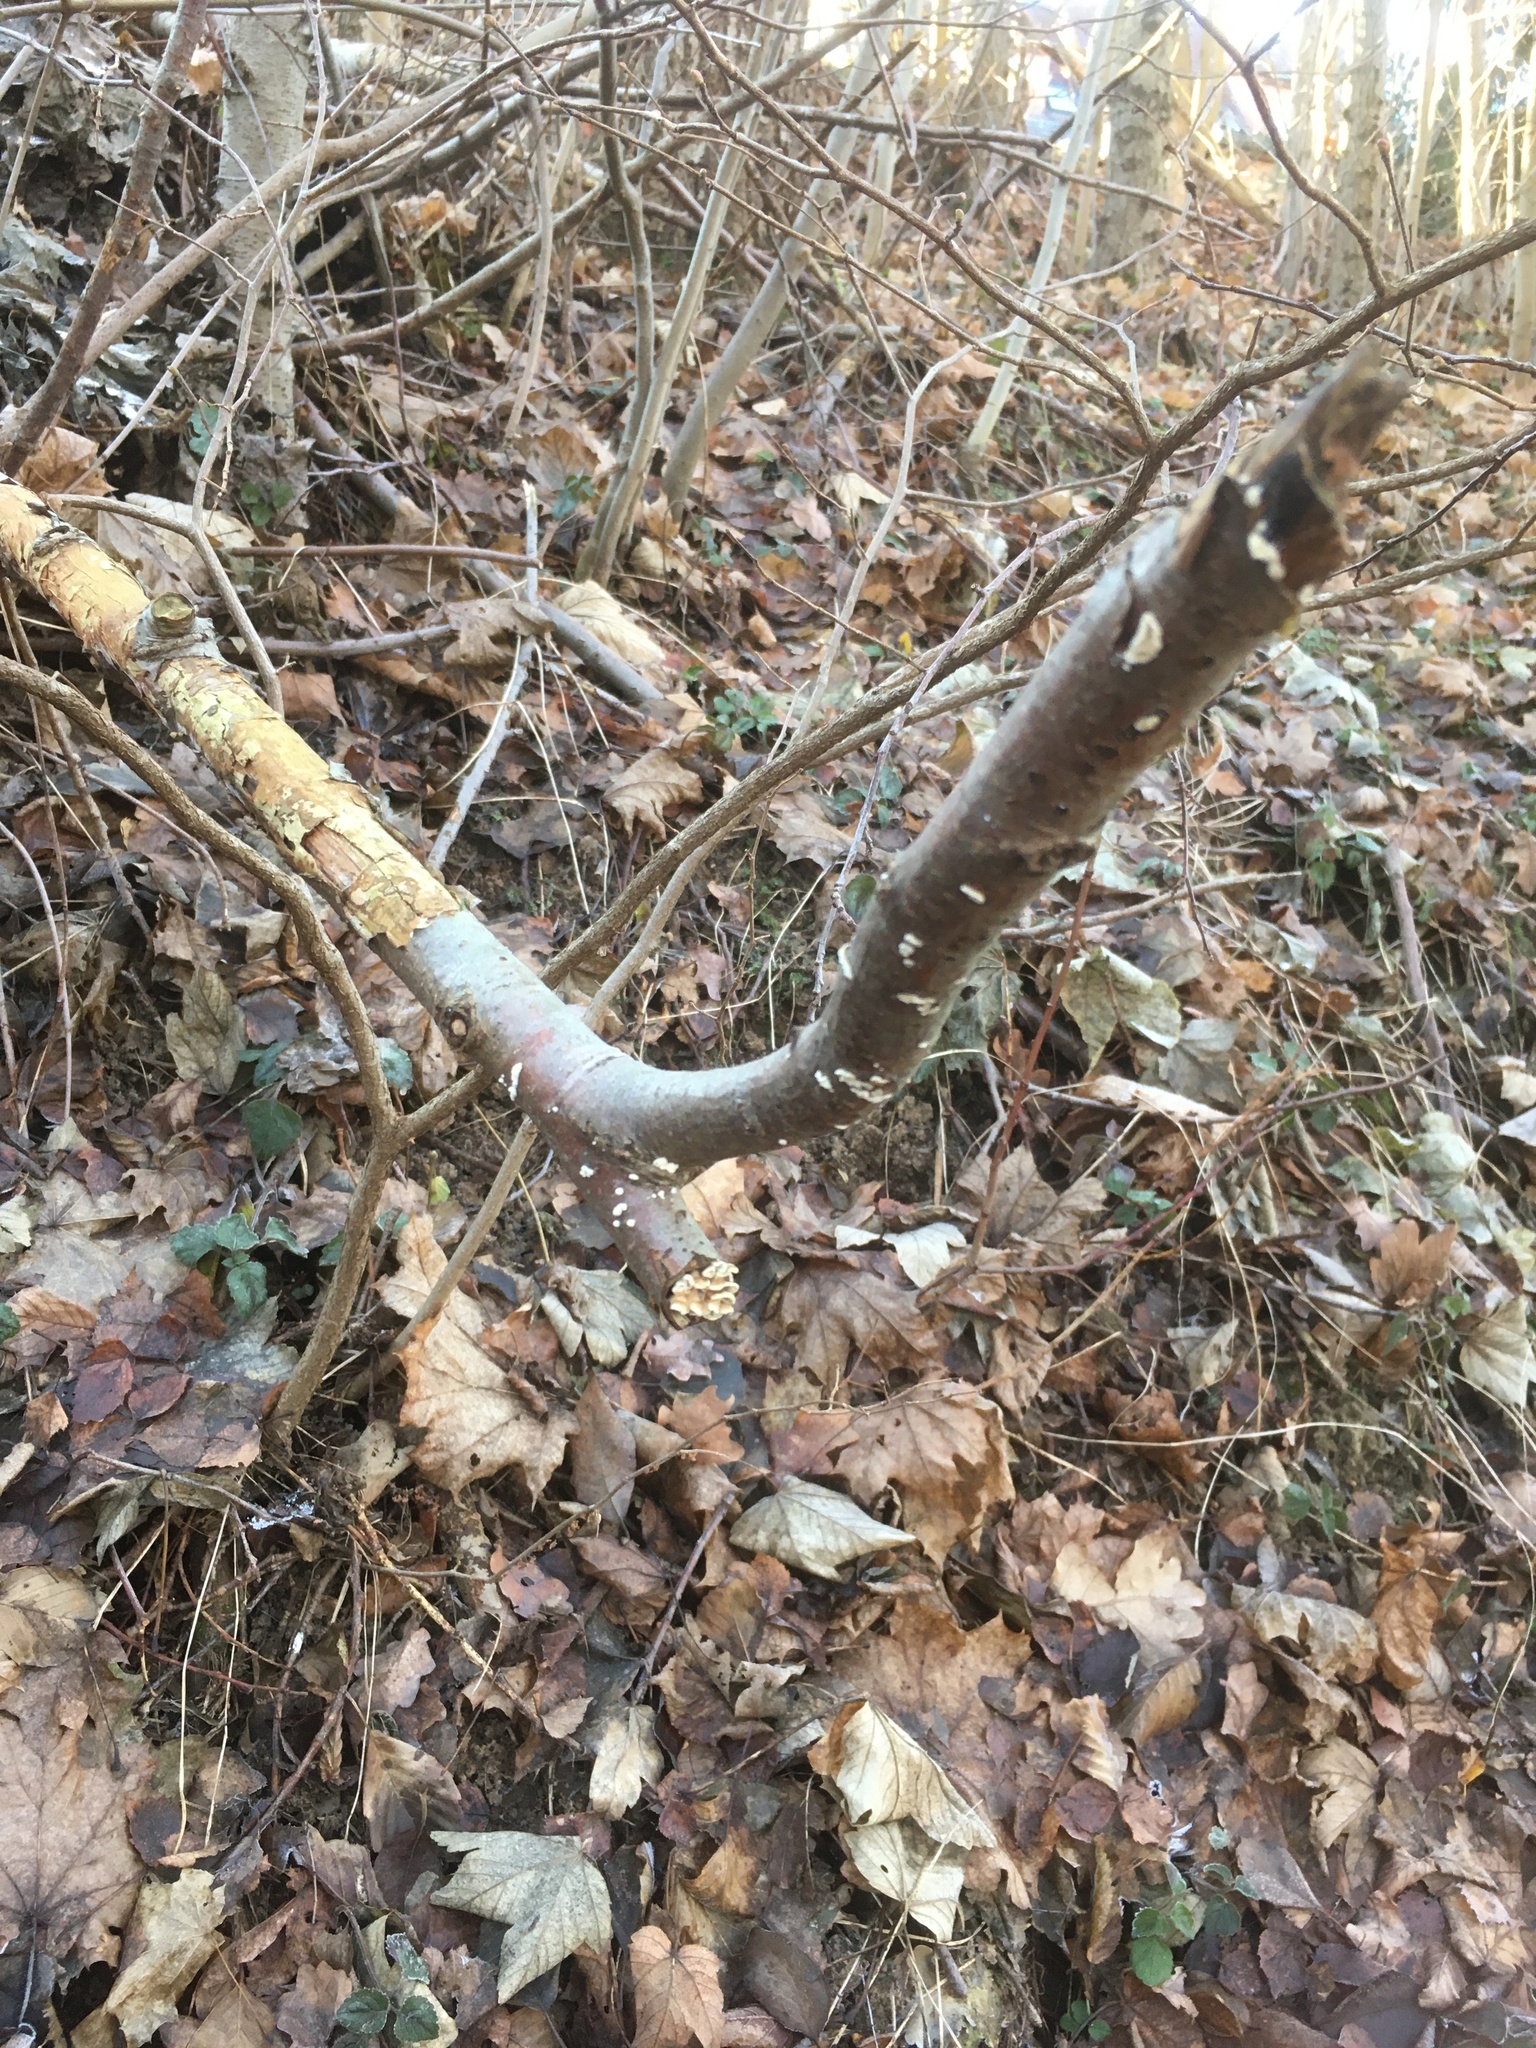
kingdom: Fungi
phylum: Basidiomycota
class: Agaricomycetes
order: Amylocorticiales
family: Amylocorticiaceae
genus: Plicaturopsis
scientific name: Plicaturopsis crispa
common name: Crimped gill
